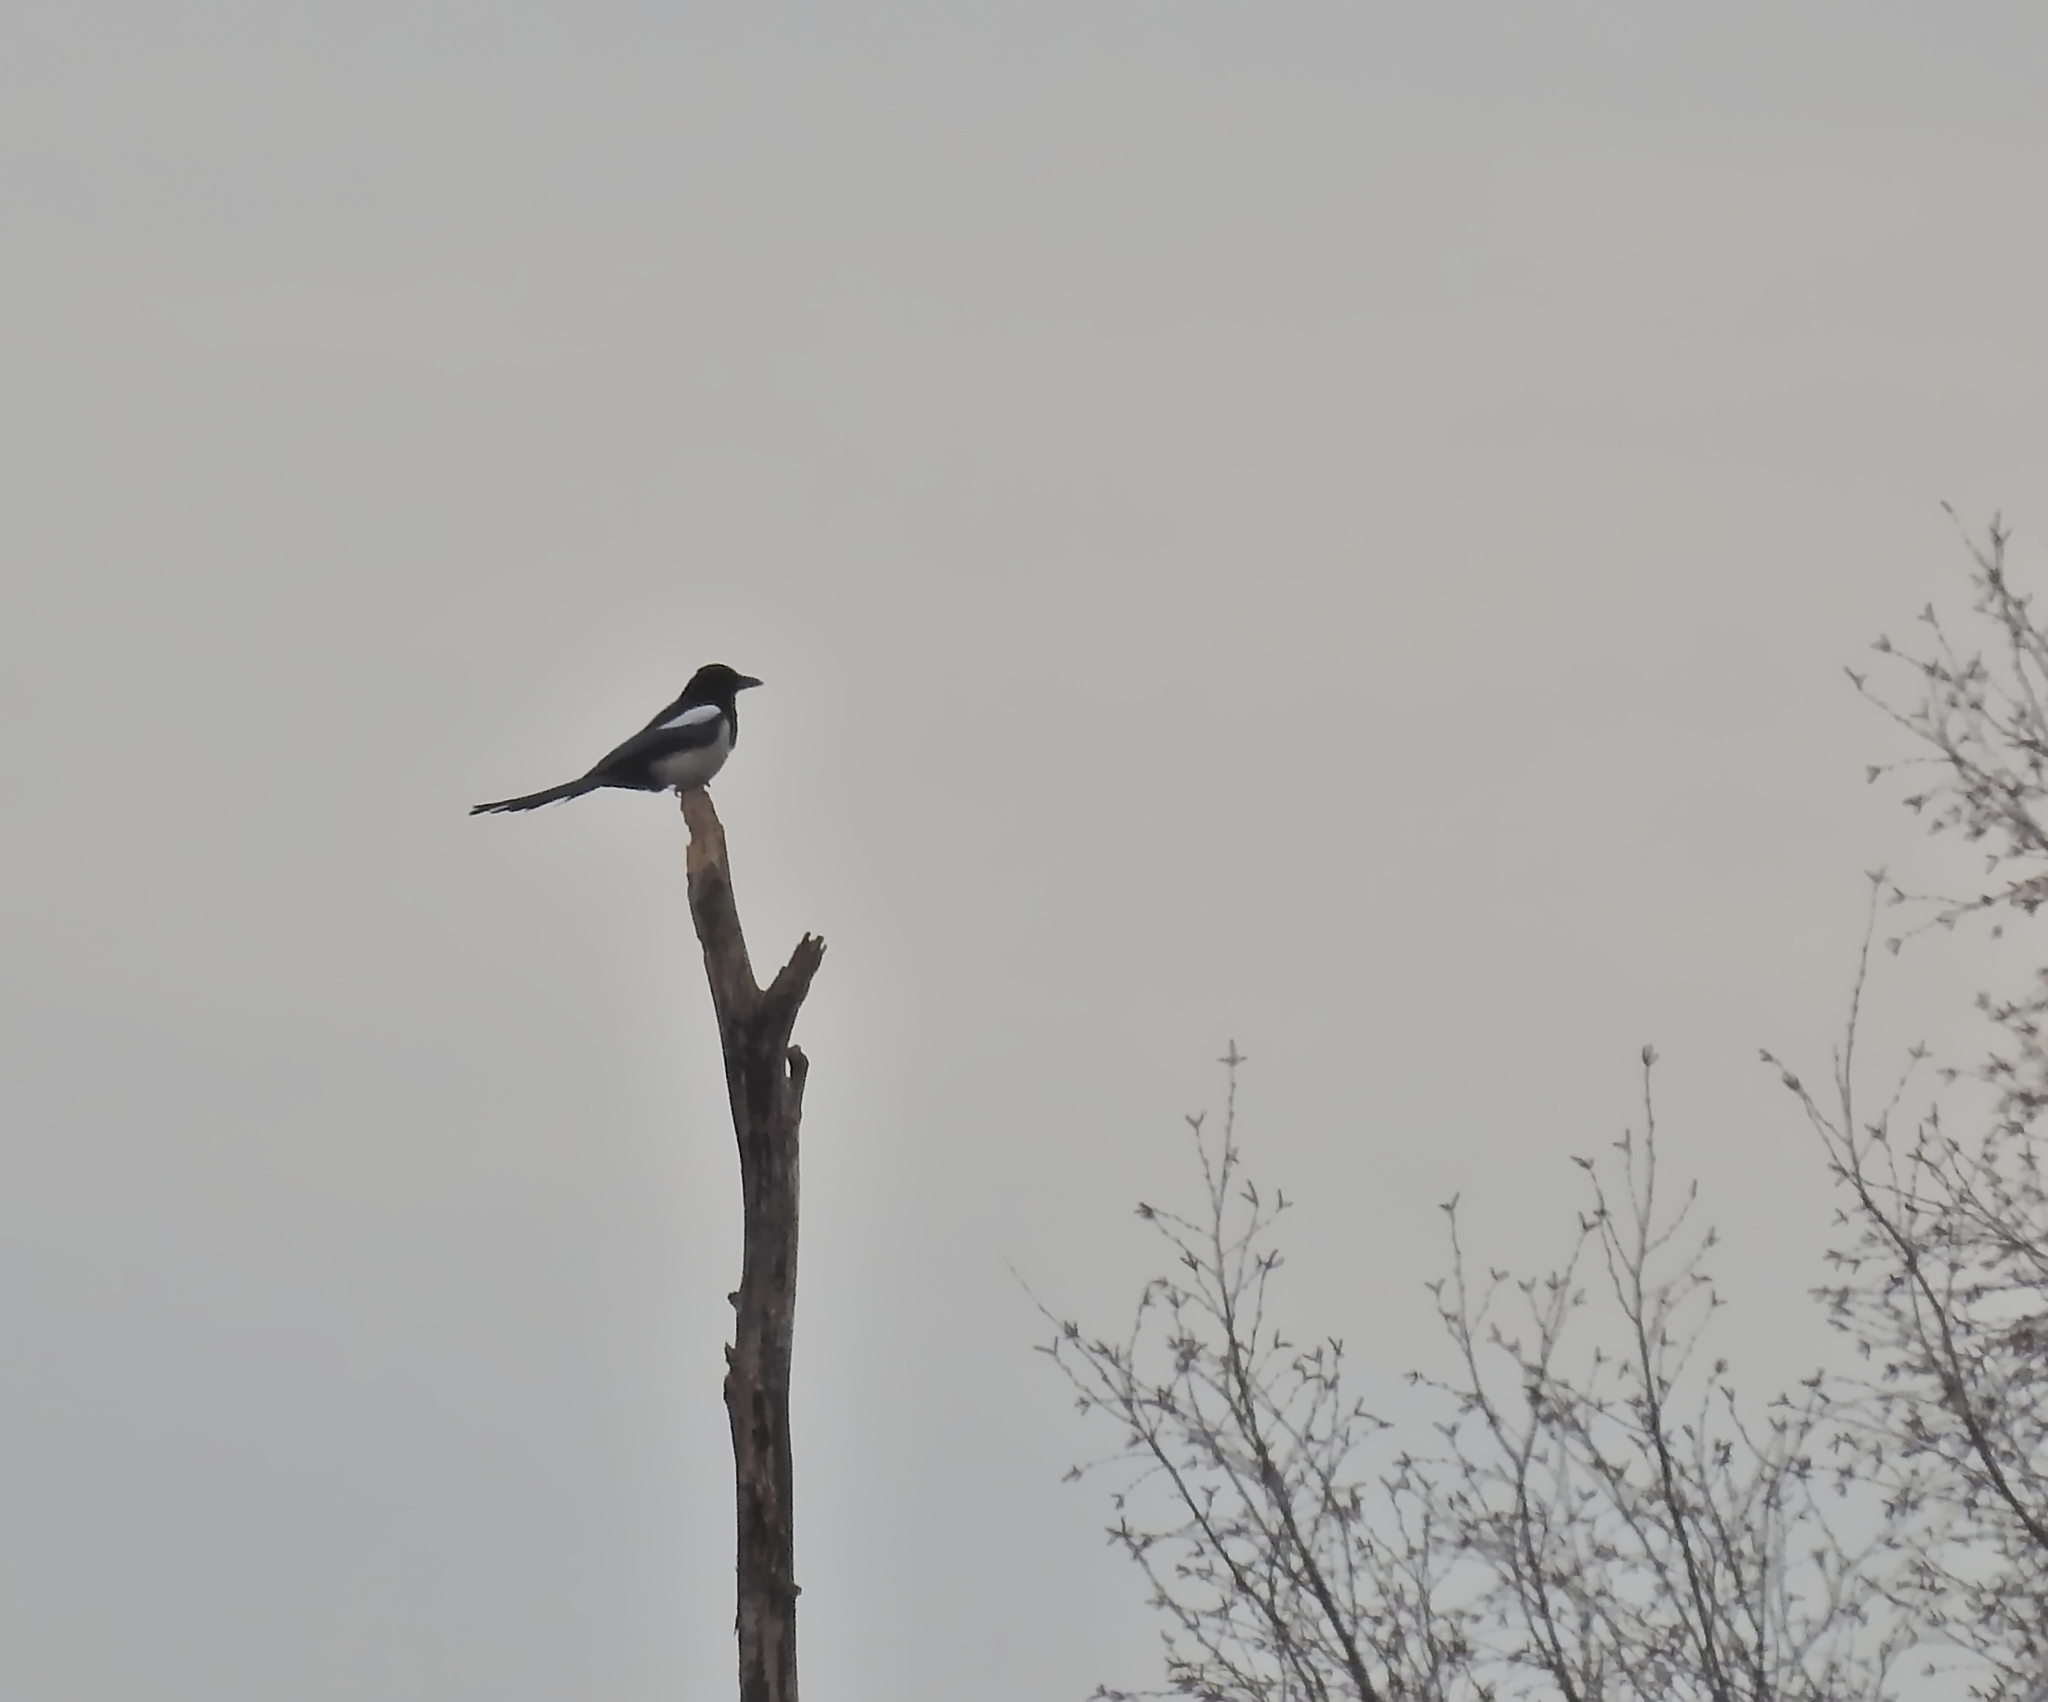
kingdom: Animalia
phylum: Chordata
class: Aves
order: Passeriformes
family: Corvidae
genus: Pica
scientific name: Pica pica
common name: Eurasian magpie
